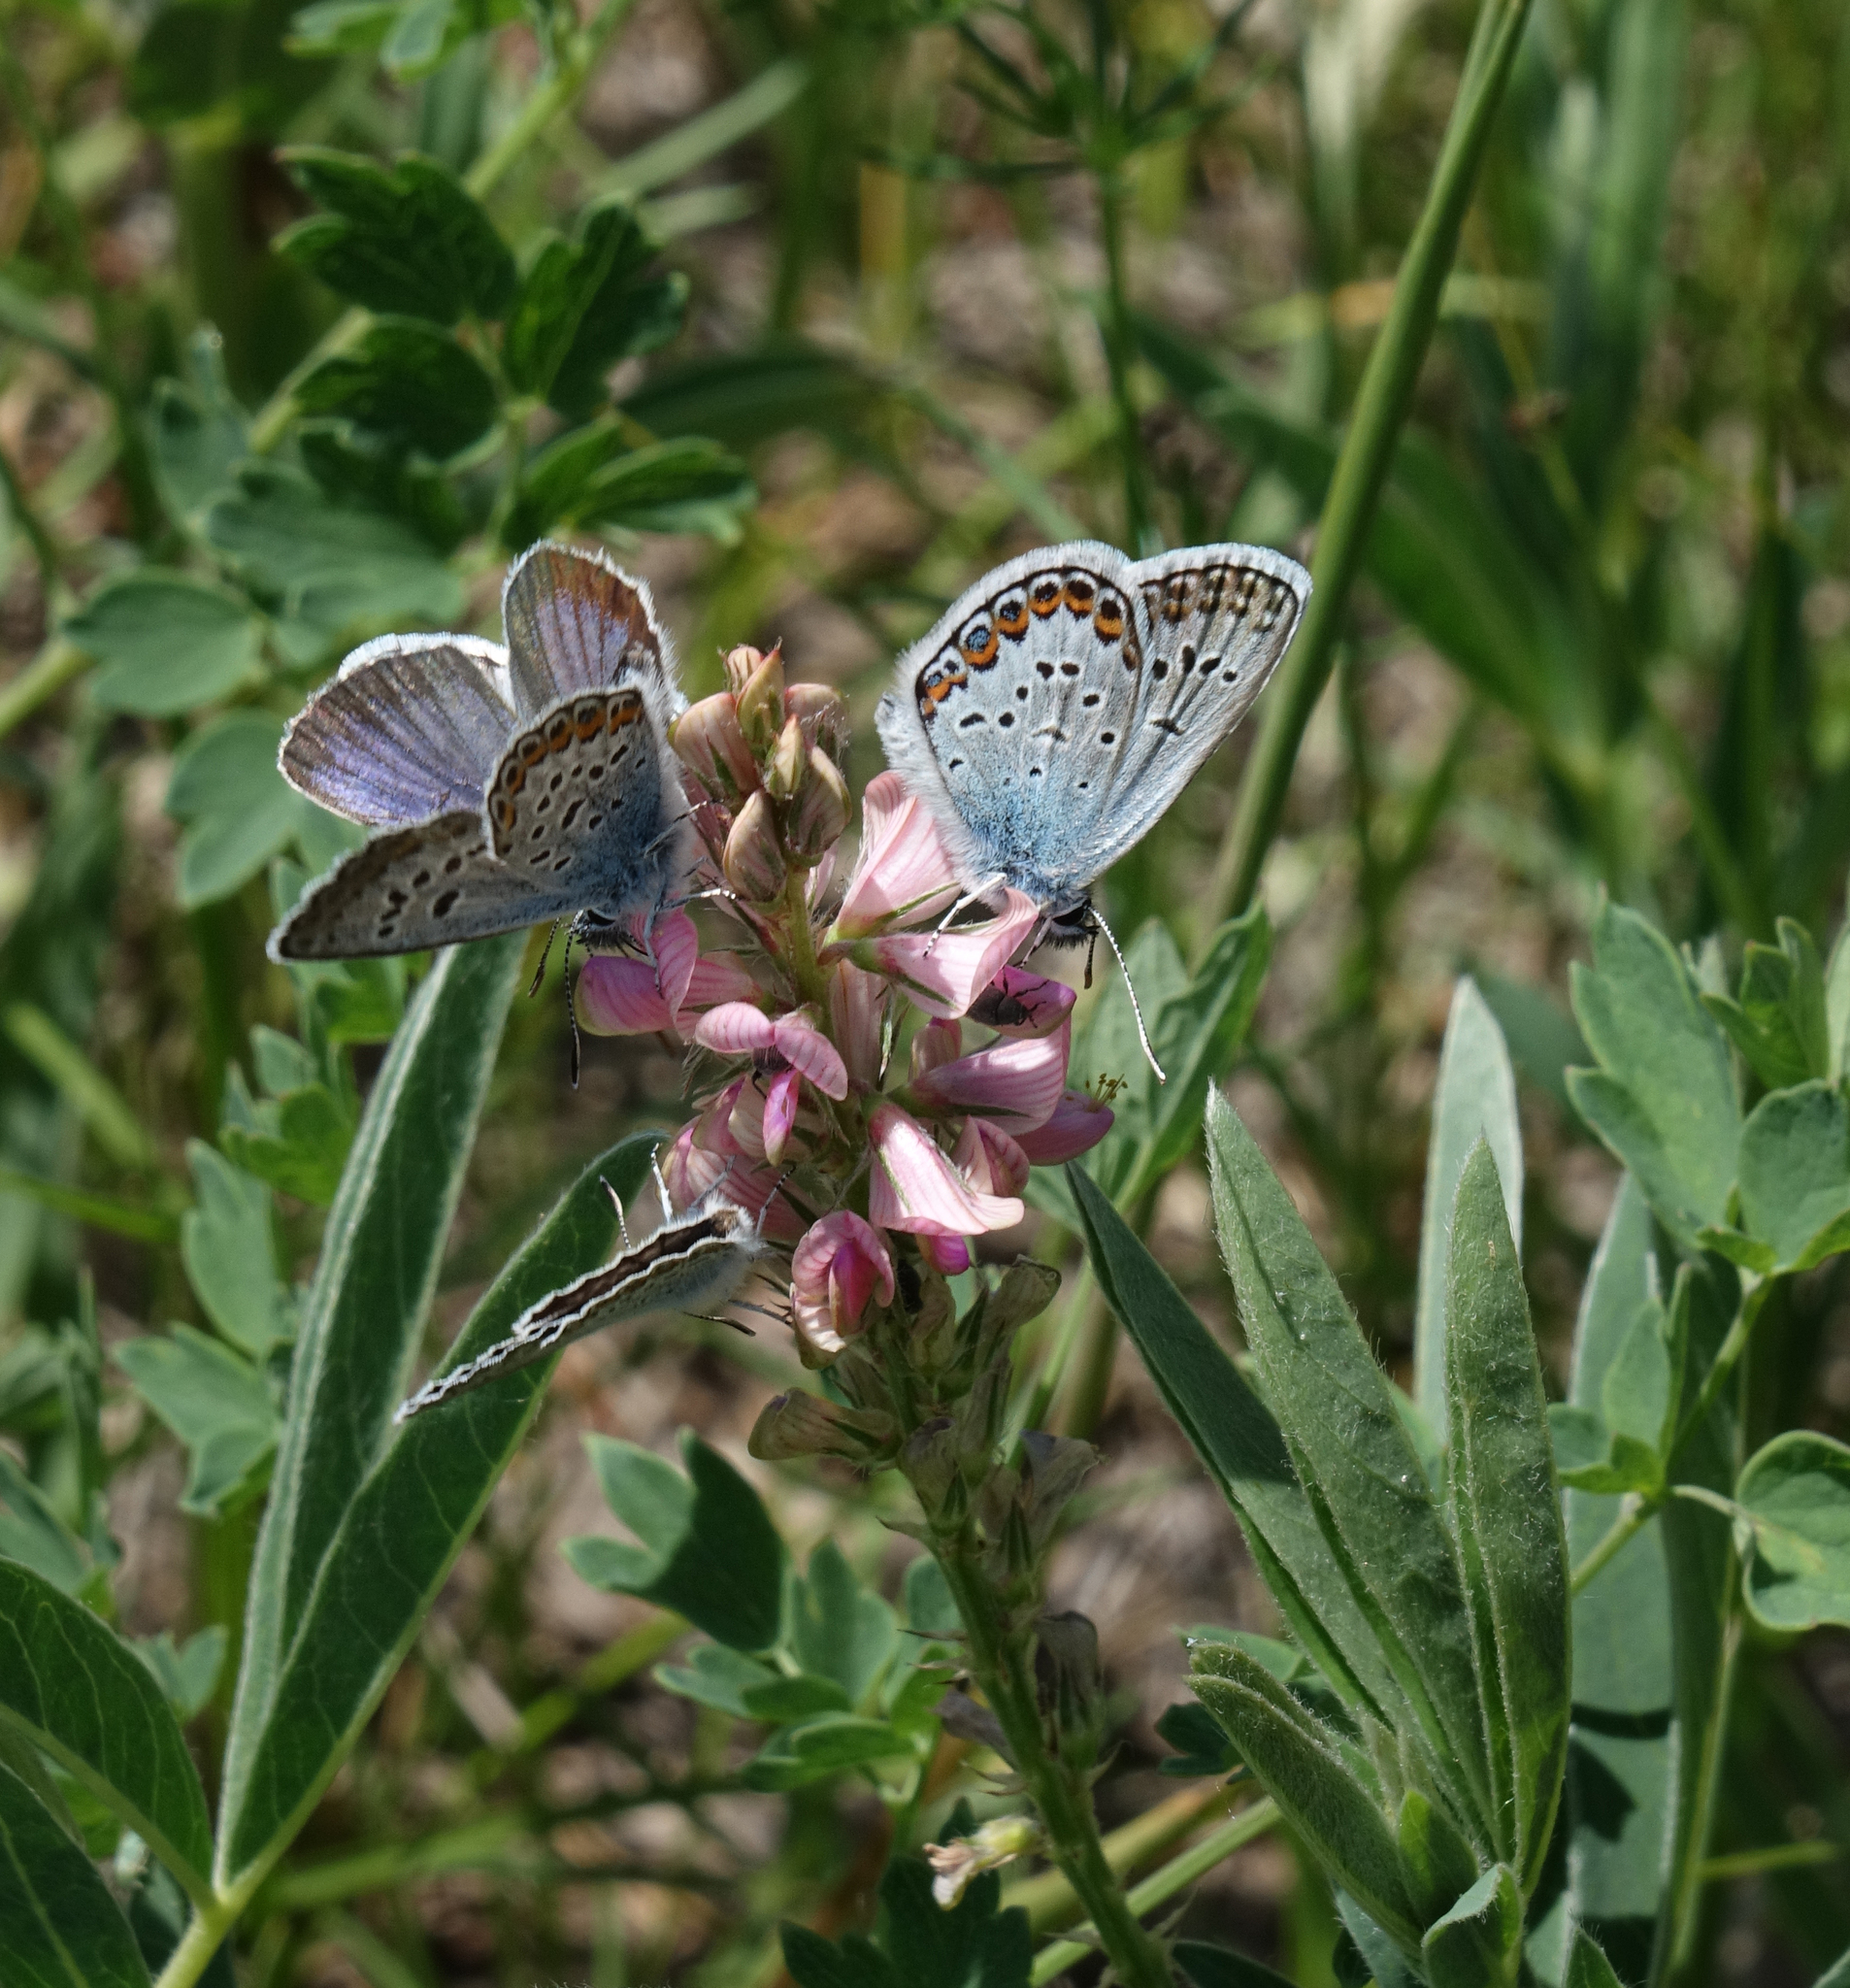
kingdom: Animalia
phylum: Arthropoda
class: Insecta
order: Lepidoptera
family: Lycaenidae
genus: Plebejus
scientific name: Plebejus argus
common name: Silver-studded blue
